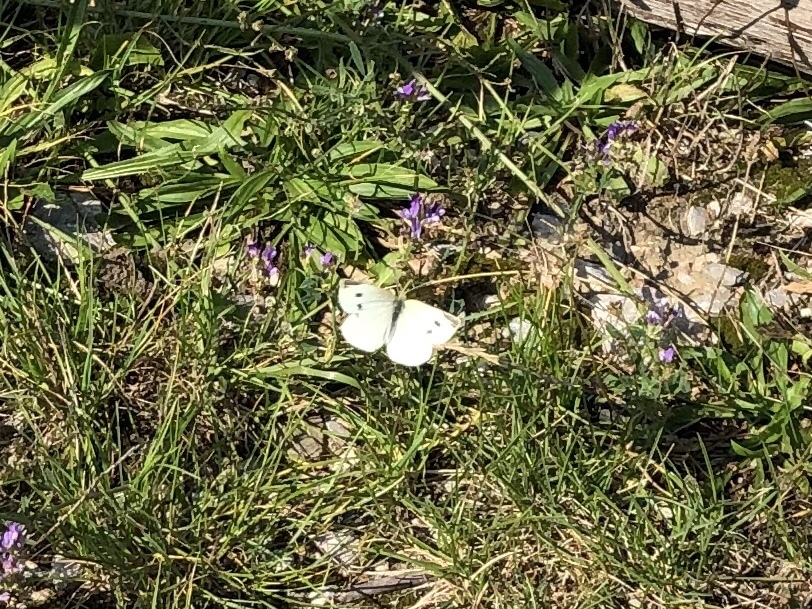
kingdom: Animalia
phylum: Arthropoda
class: Insecta
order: Lepidoptera
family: Pieridae
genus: Pieris
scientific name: Pieris rapae
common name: Small white
